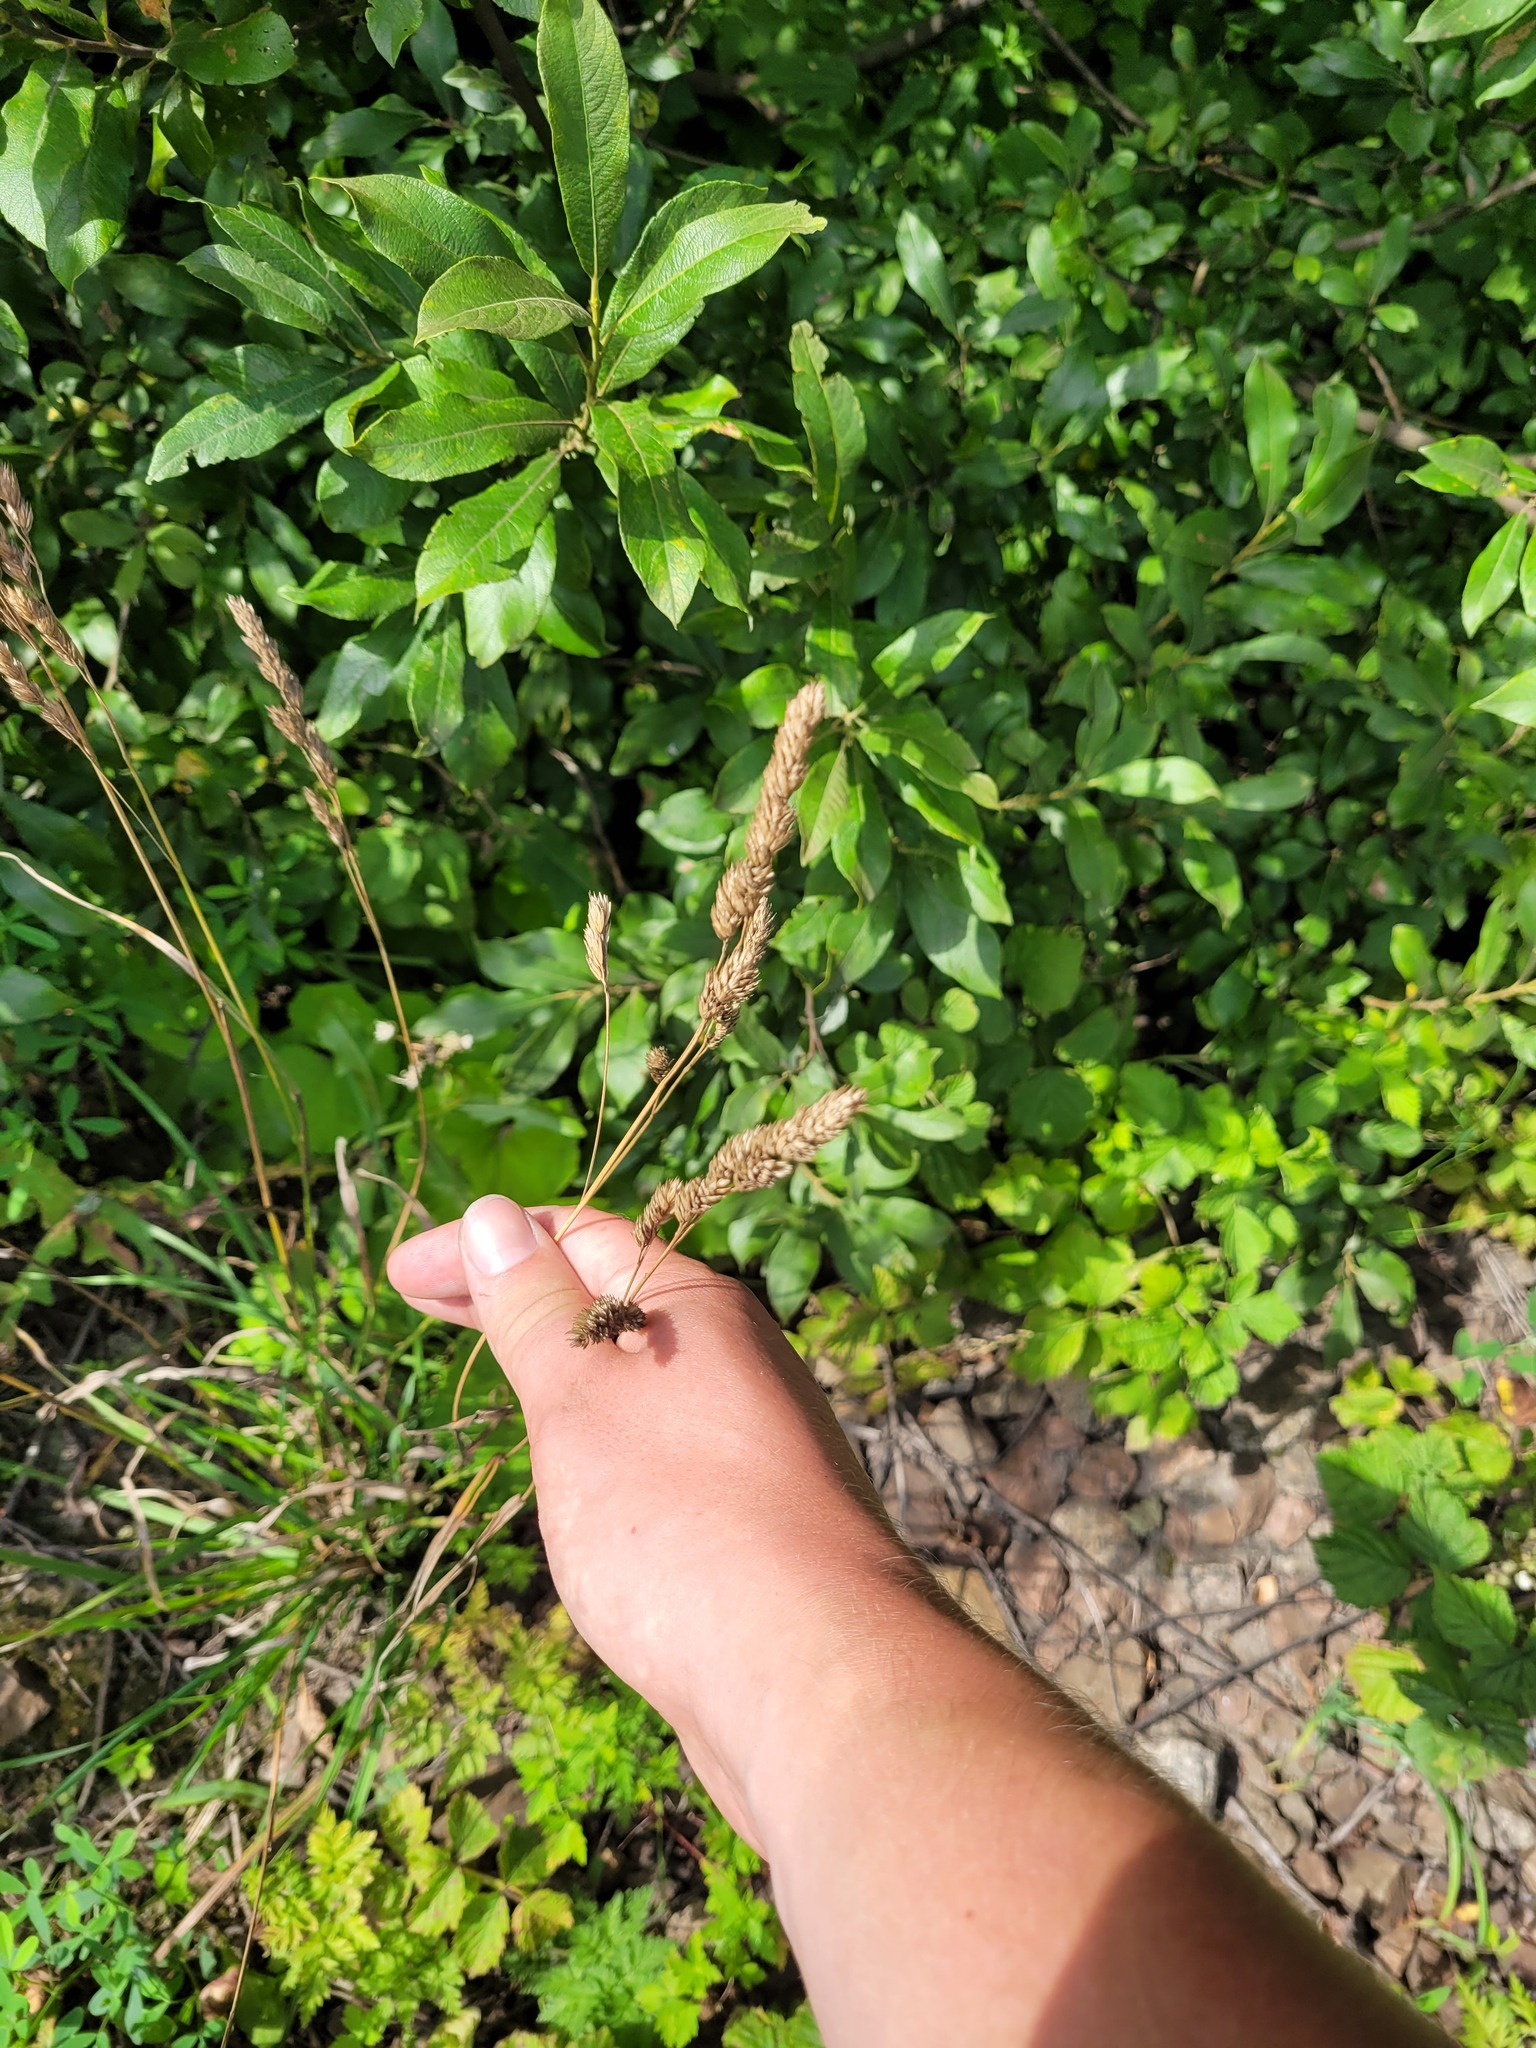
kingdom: Plantae
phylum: Tracheophyta
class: Liliopsida
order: Poales
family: Poaceae
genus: Dactylis
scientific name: Dactylis glomerata
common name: Orchardgrass
